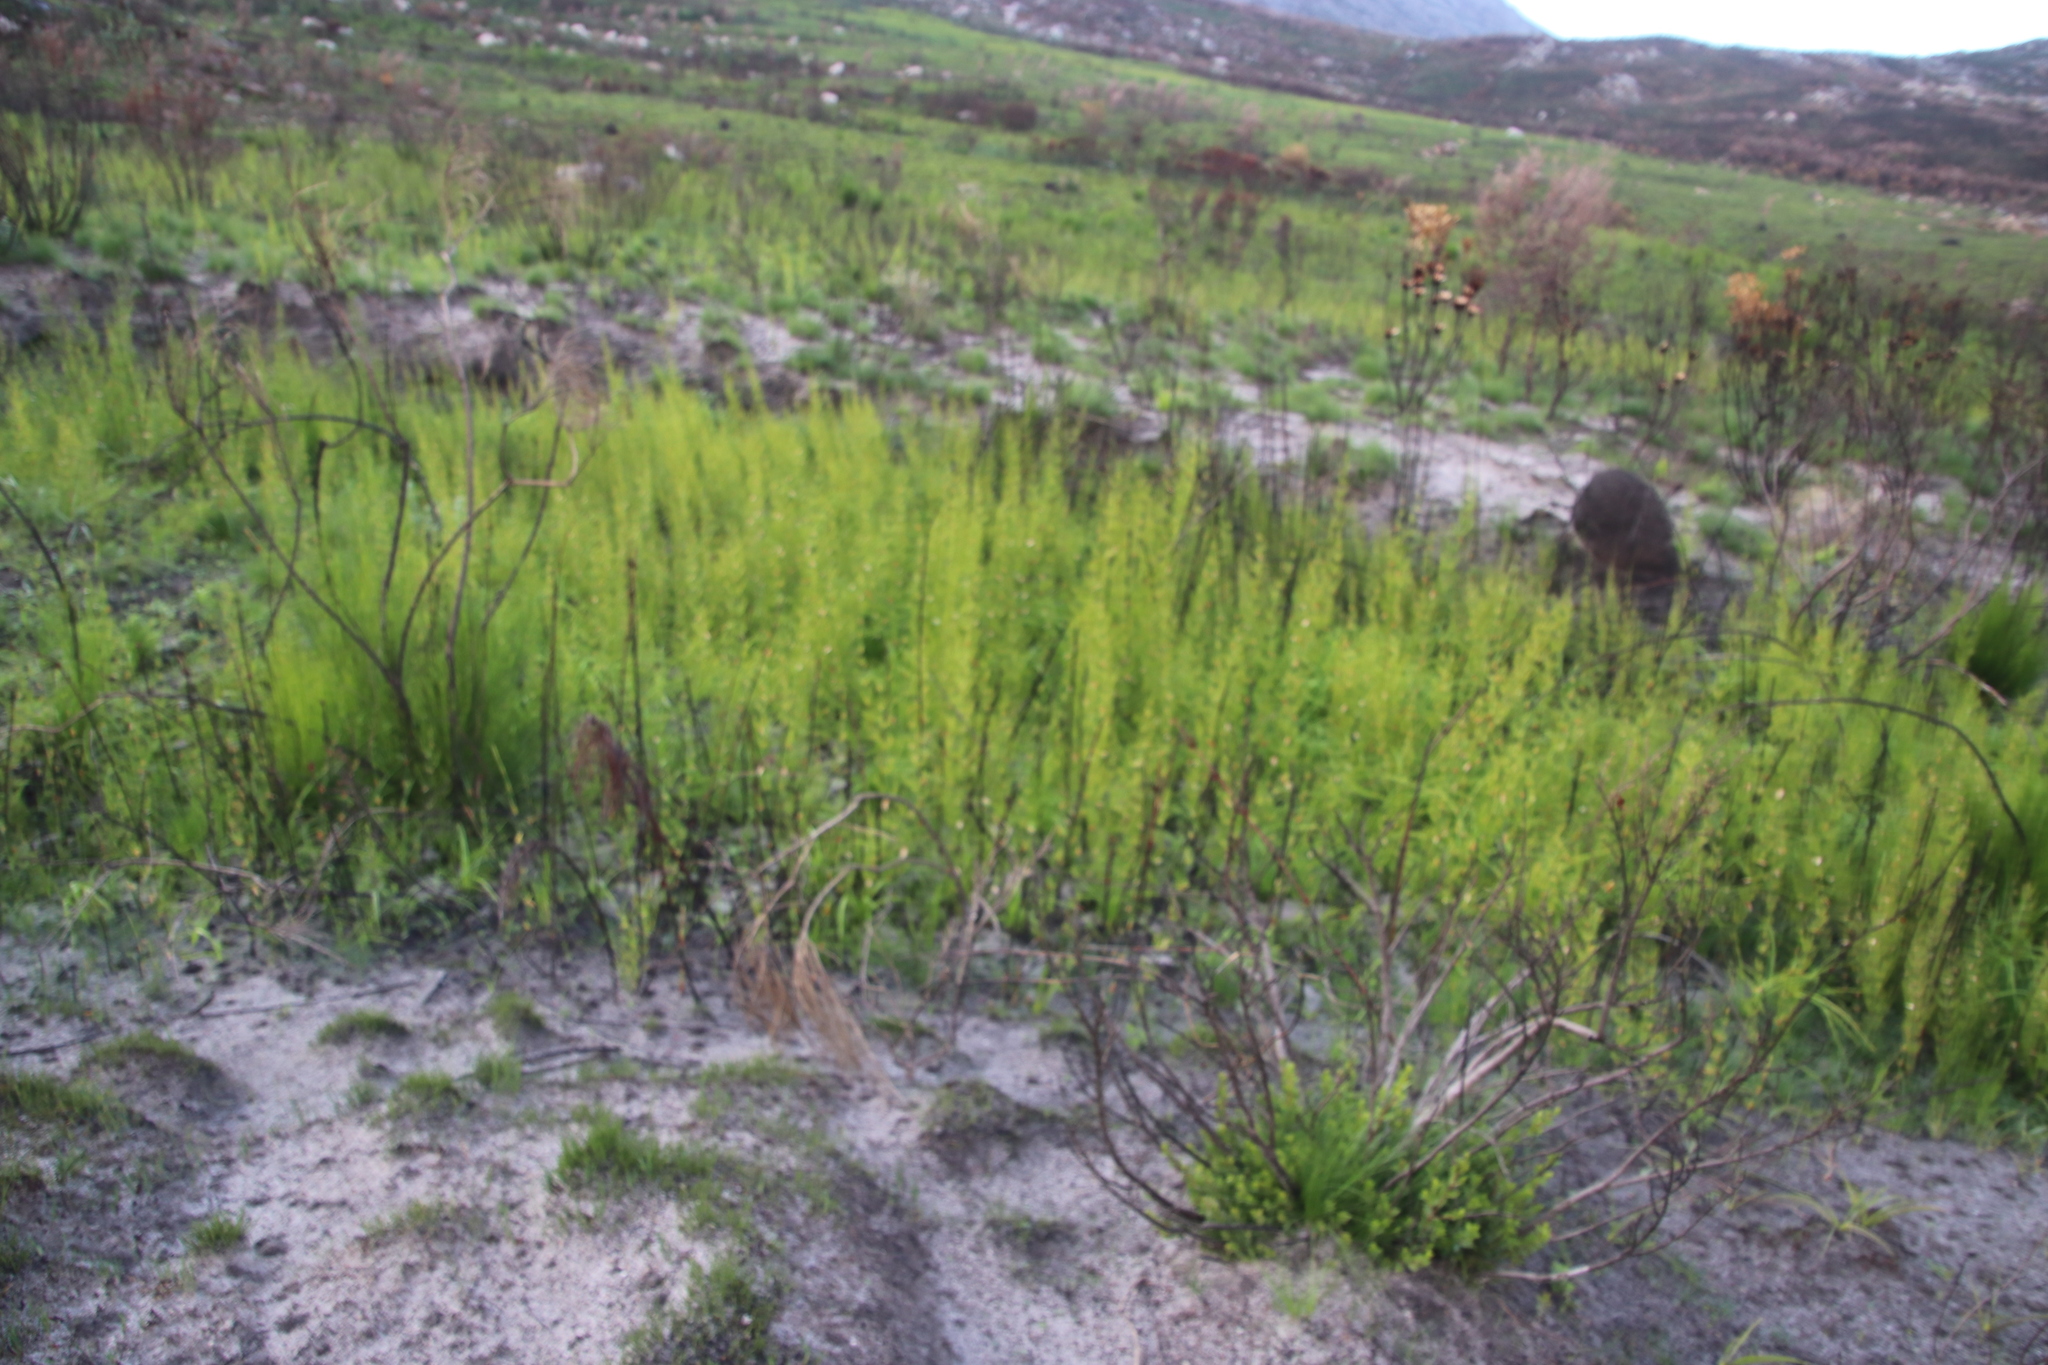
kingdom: Plantae
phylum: Tracheophyta
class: Liliopsida
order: Poales
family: Restionaceae
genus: Elegia
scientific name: Elegia capensis
